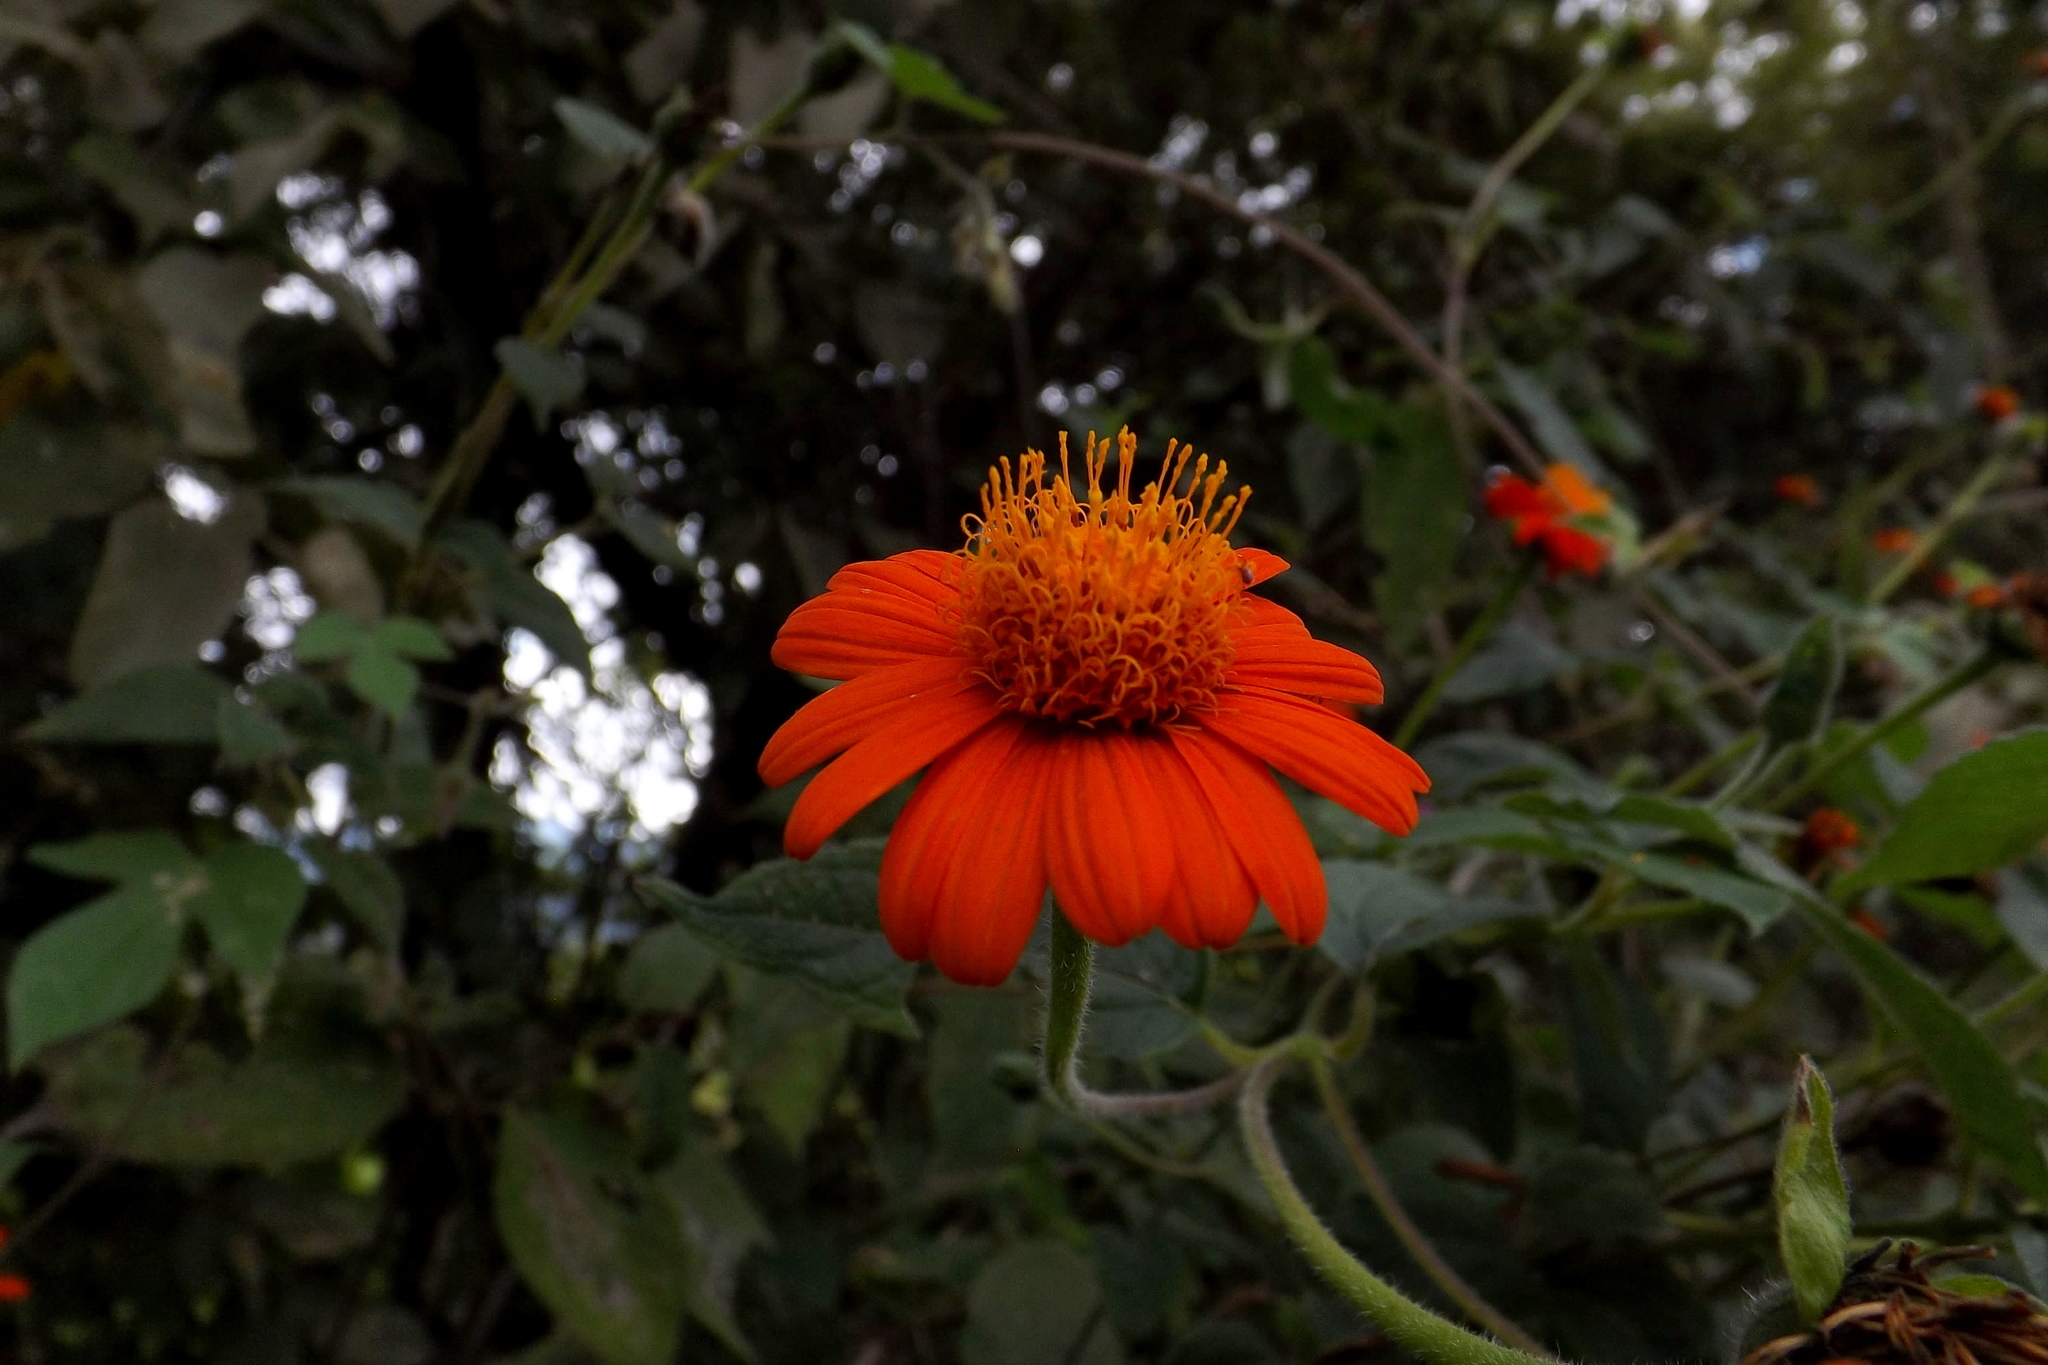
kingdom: Plantae
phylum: Tracheophyta
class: Magnoliopsida
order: Asterales
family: Asteraceae
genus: Tithonia
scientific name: Tithonia rotundifolia
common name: Sunflower
